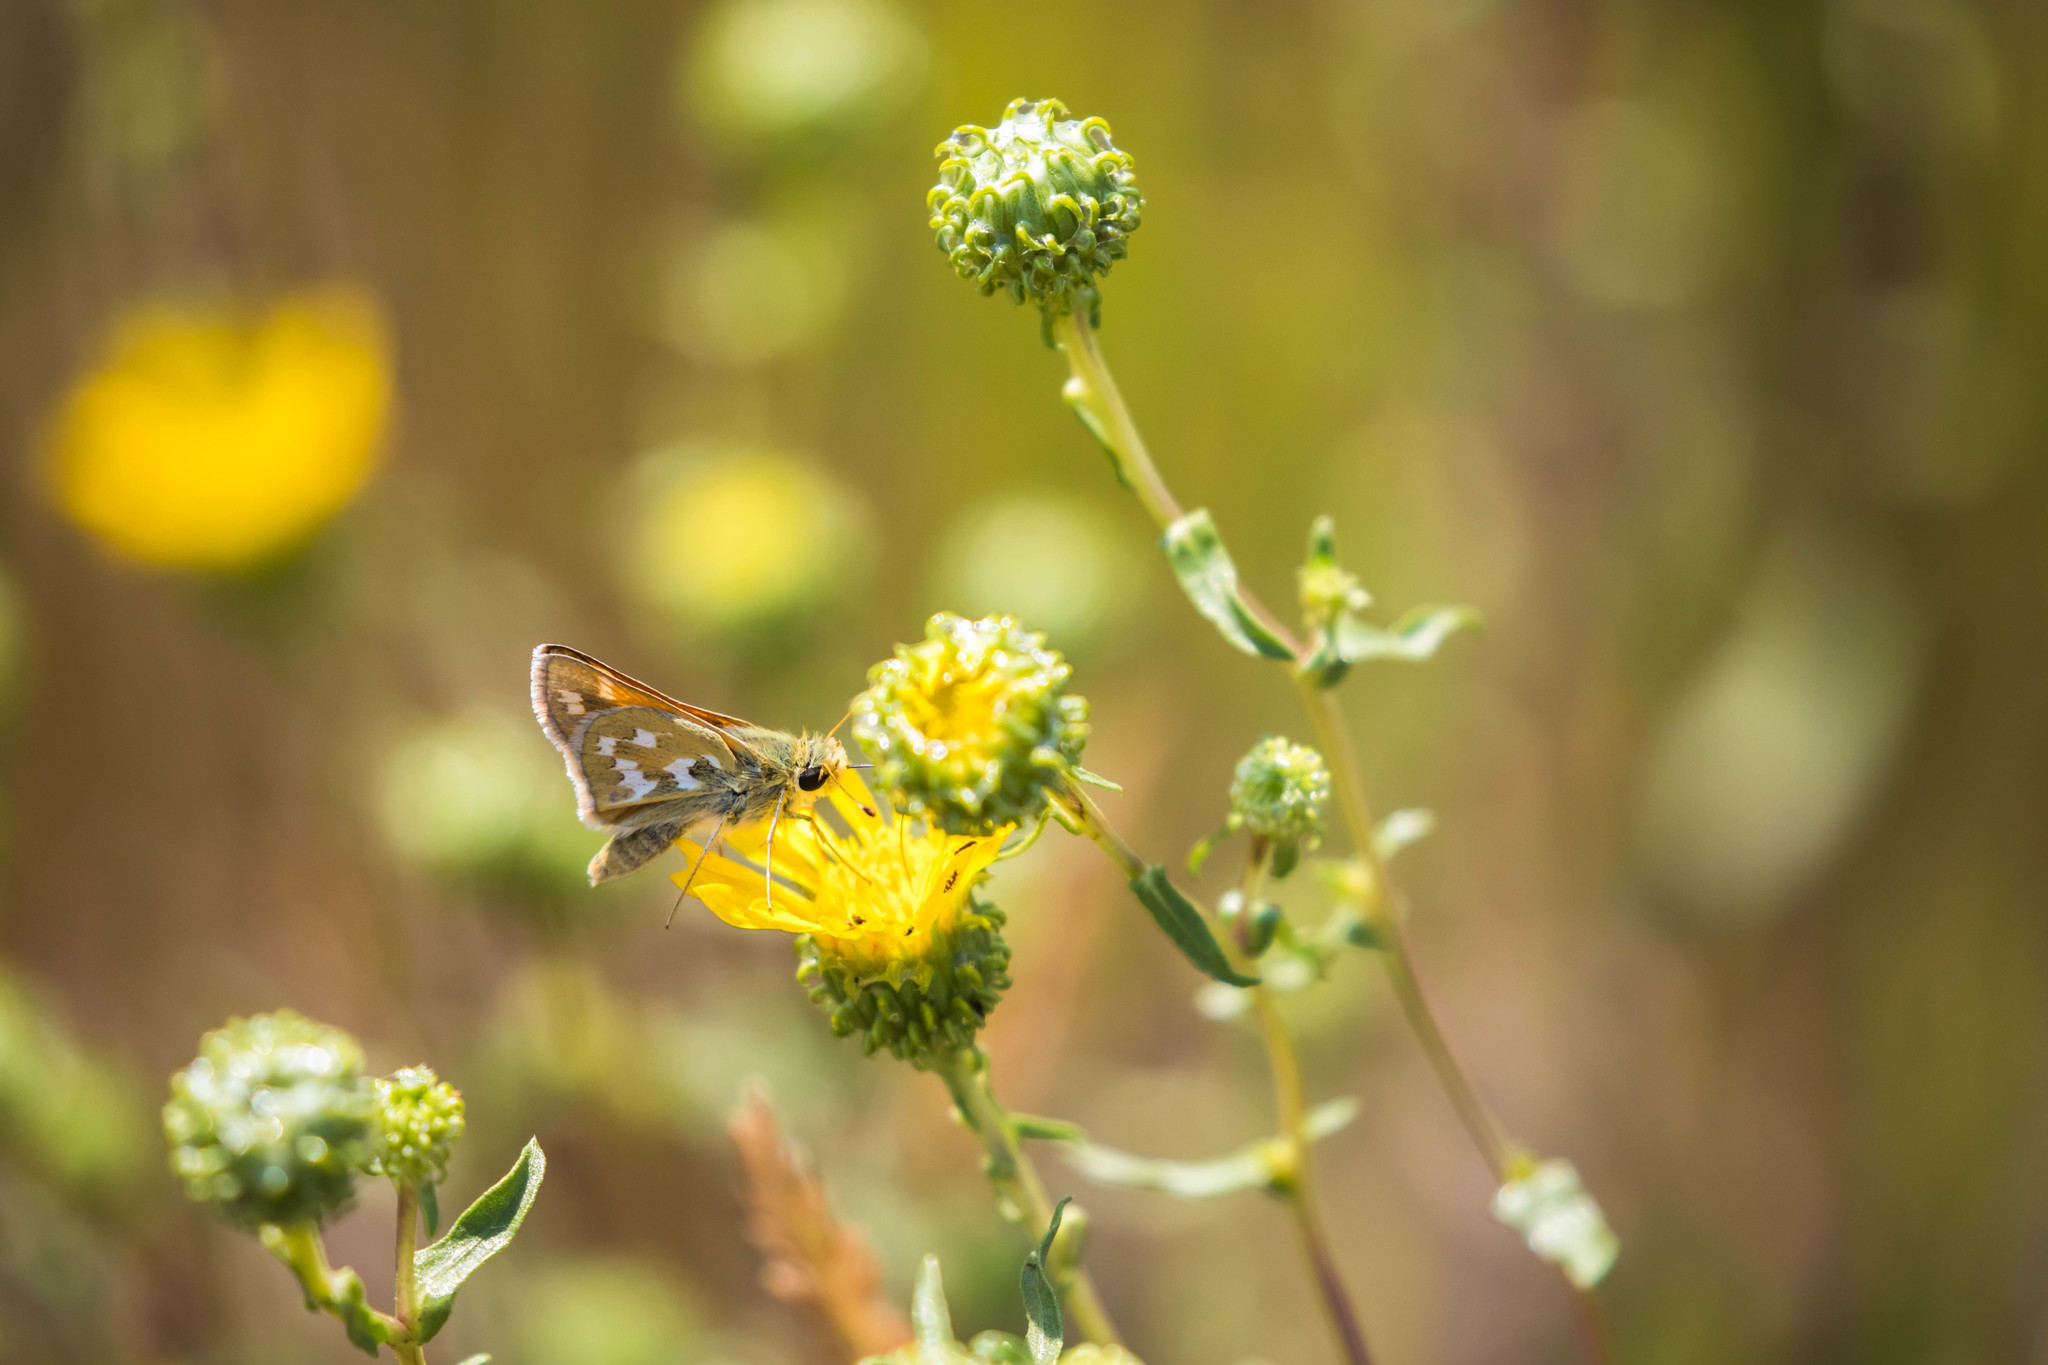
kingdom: Animalia
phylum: Arthropoda
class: Insecta
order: Lepidoptera
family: Hesperiidae
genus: Hesperia
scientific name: Hesperia comma
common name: Common branded skipper
